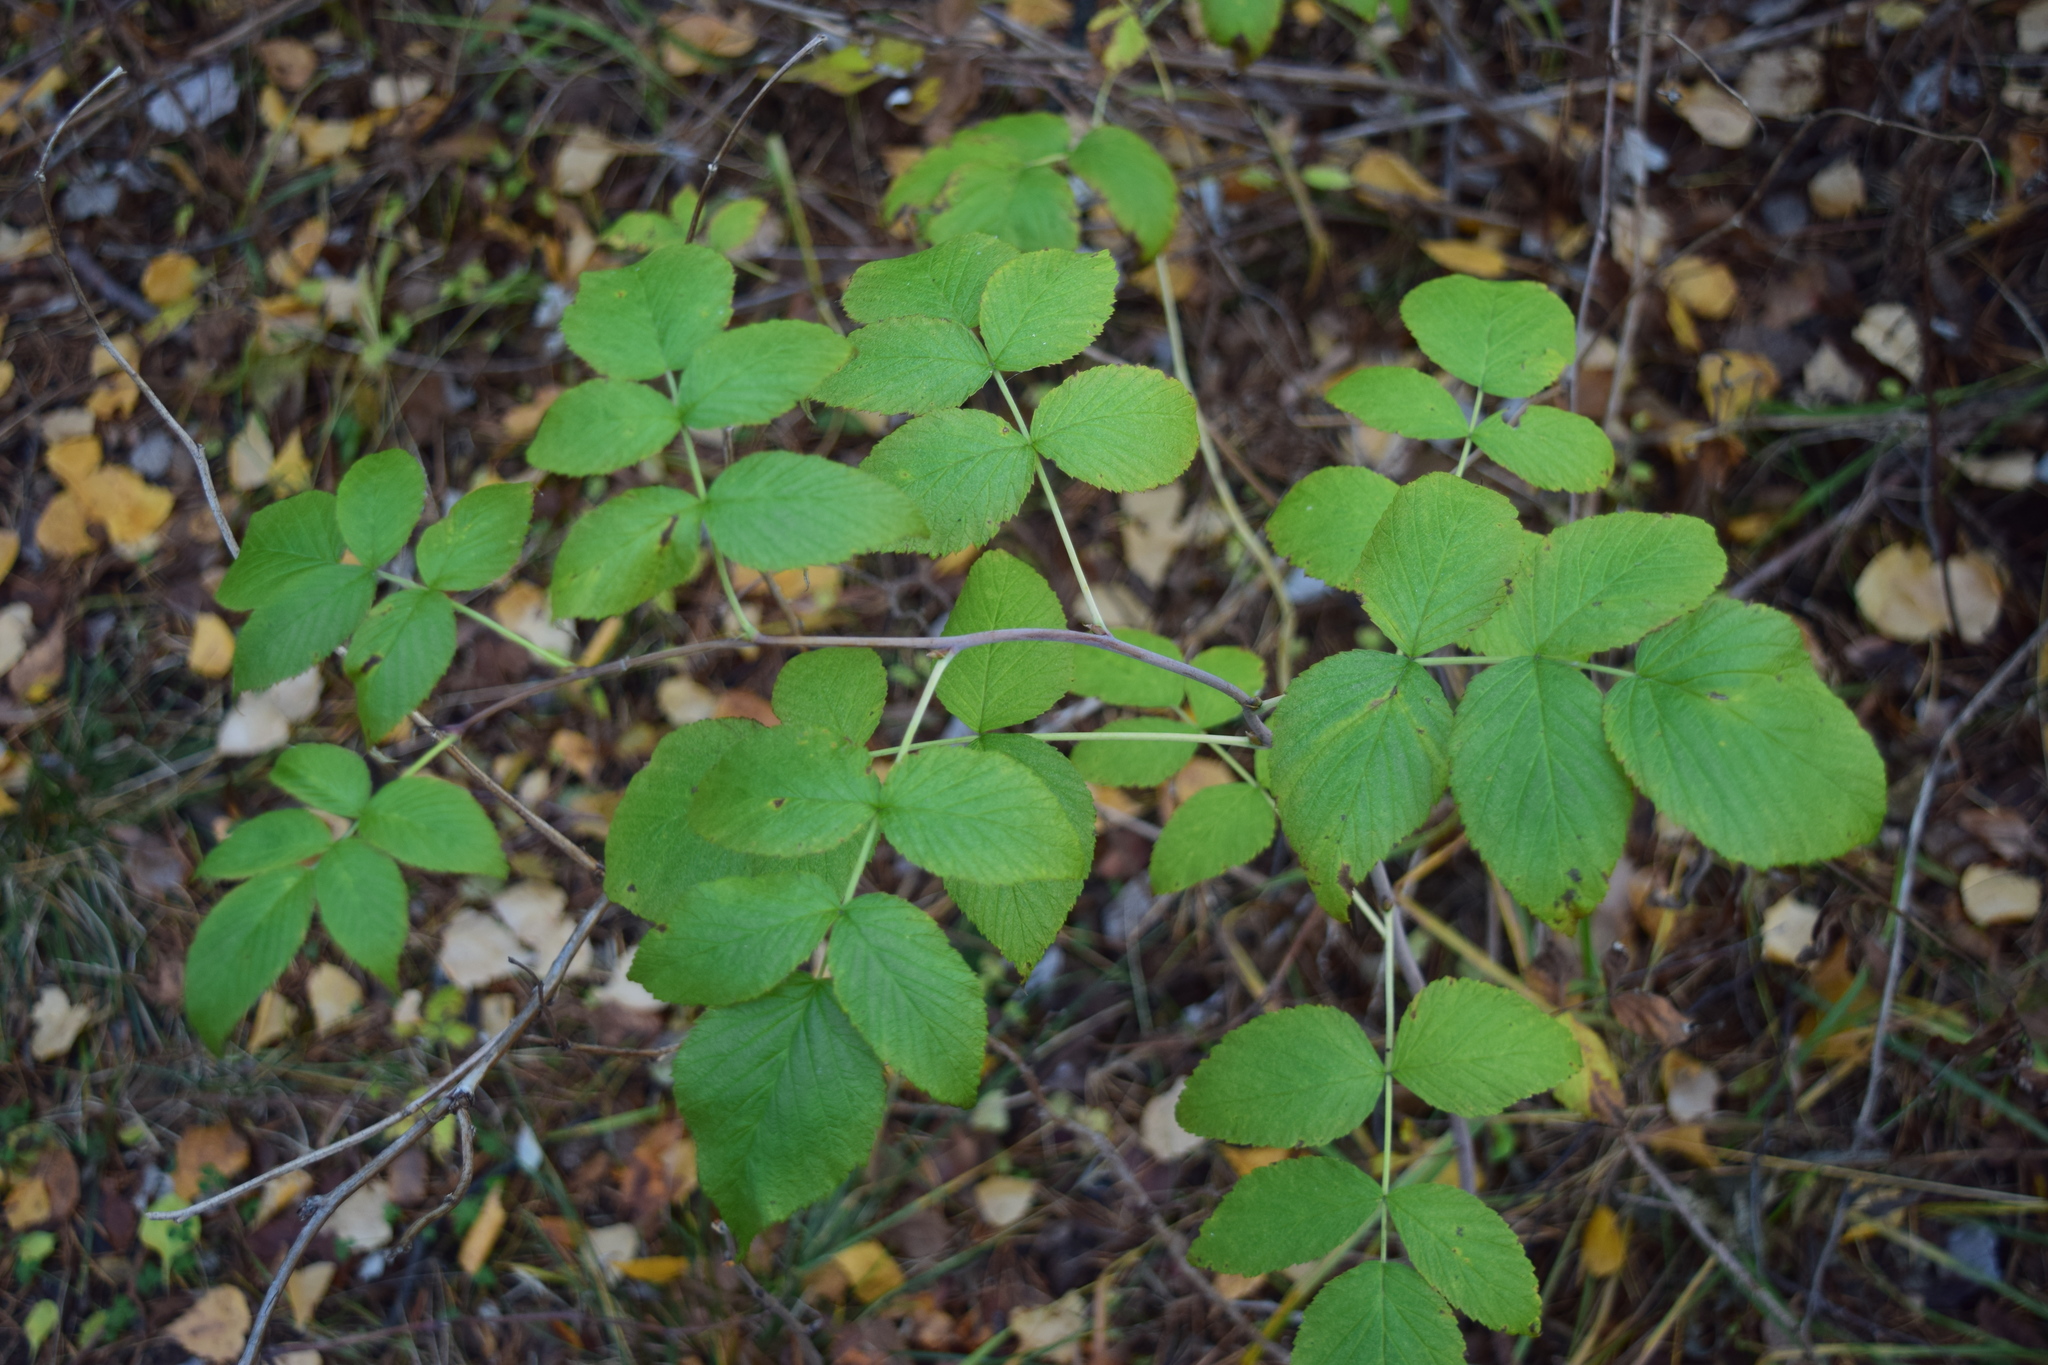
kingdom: Plantae
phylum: Tracheophyta
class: Magnoliopsida
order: Rosales
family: Rosaceae
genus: Rubus
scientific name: Rubus idaeus
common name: Raspberry
